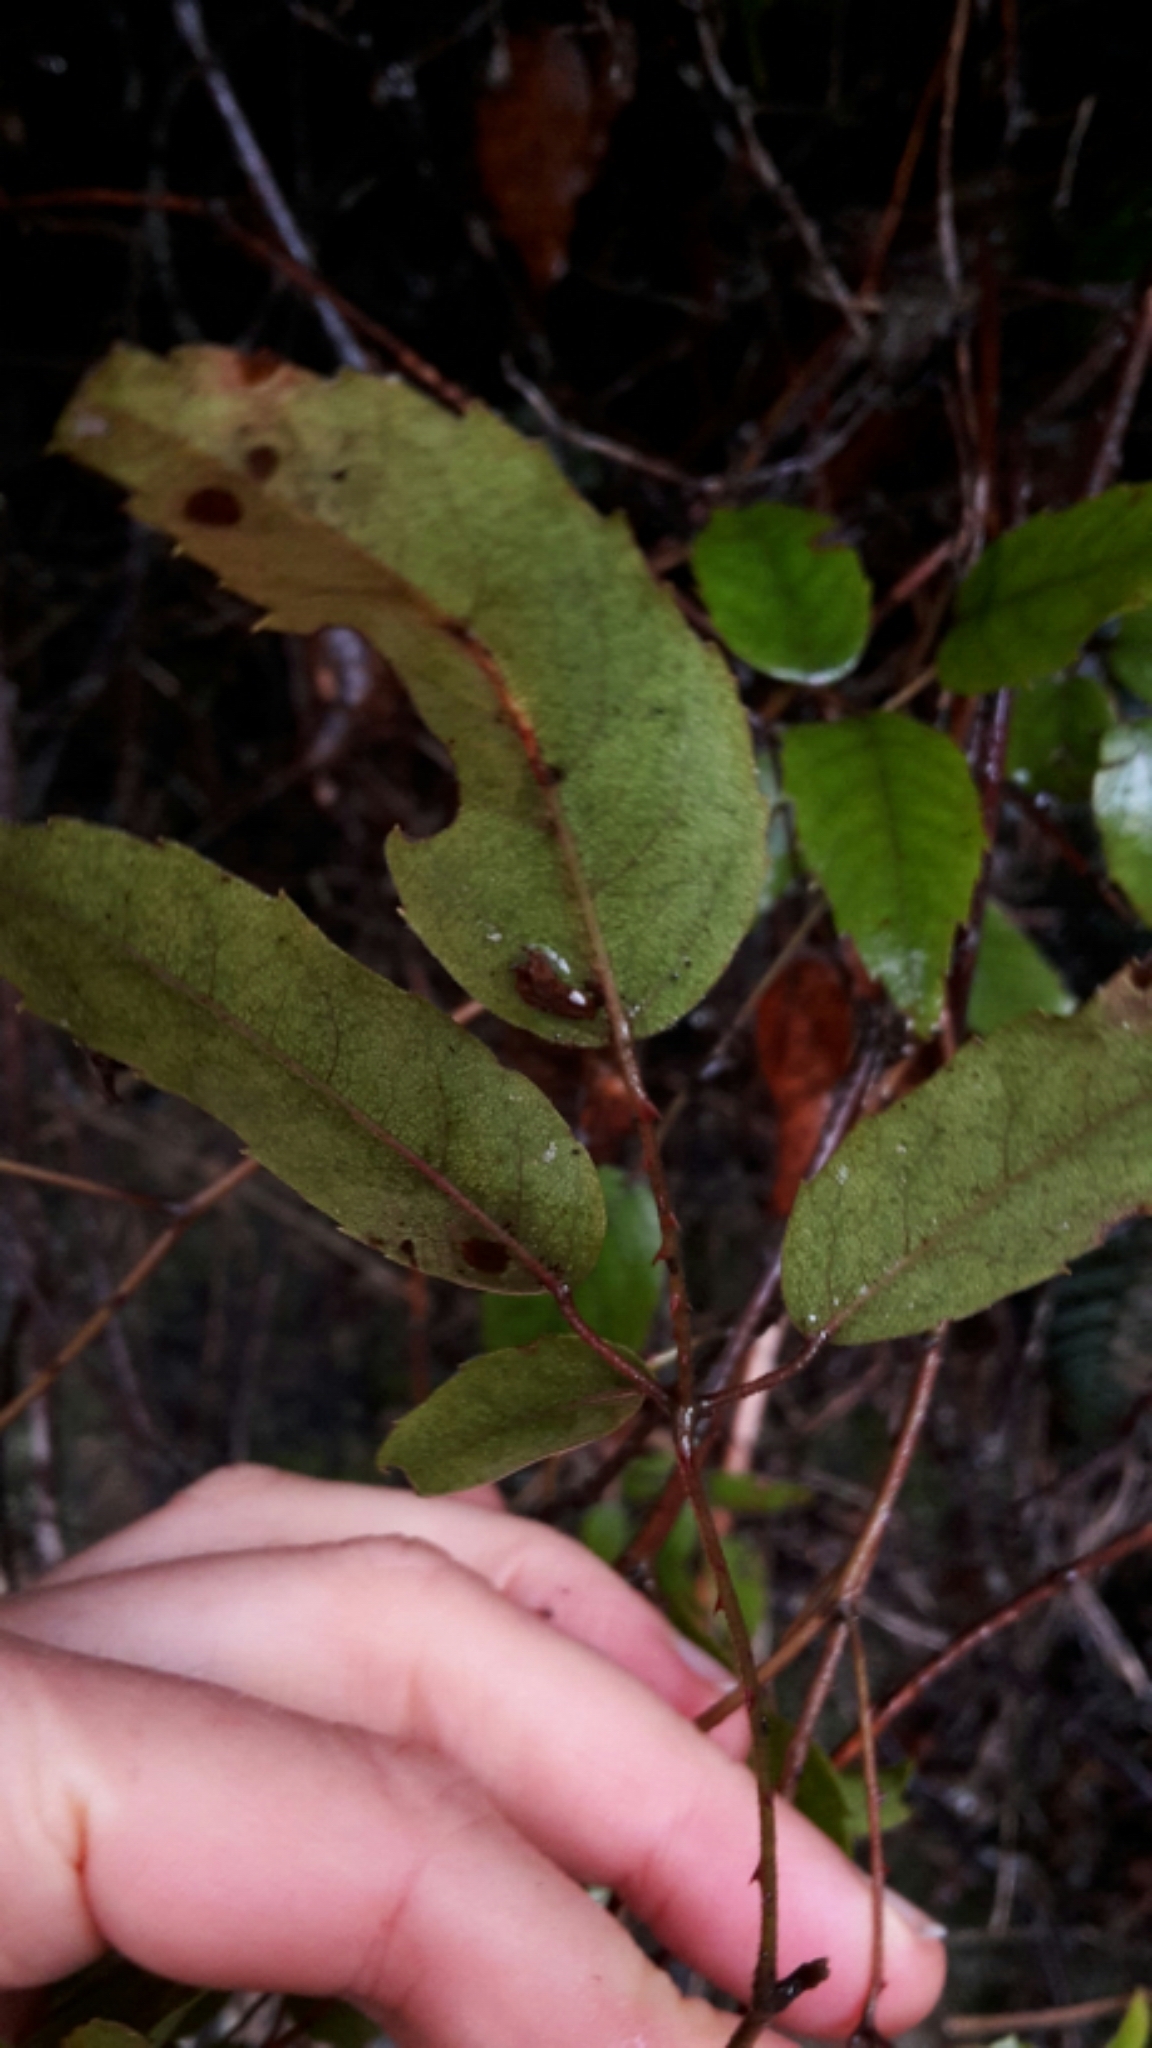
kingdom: Plantae
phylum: Tracheophyta
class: Magnoliopsida
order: Rosales
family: Rosaceae
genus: Rubus
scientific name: Rubus cissoides
